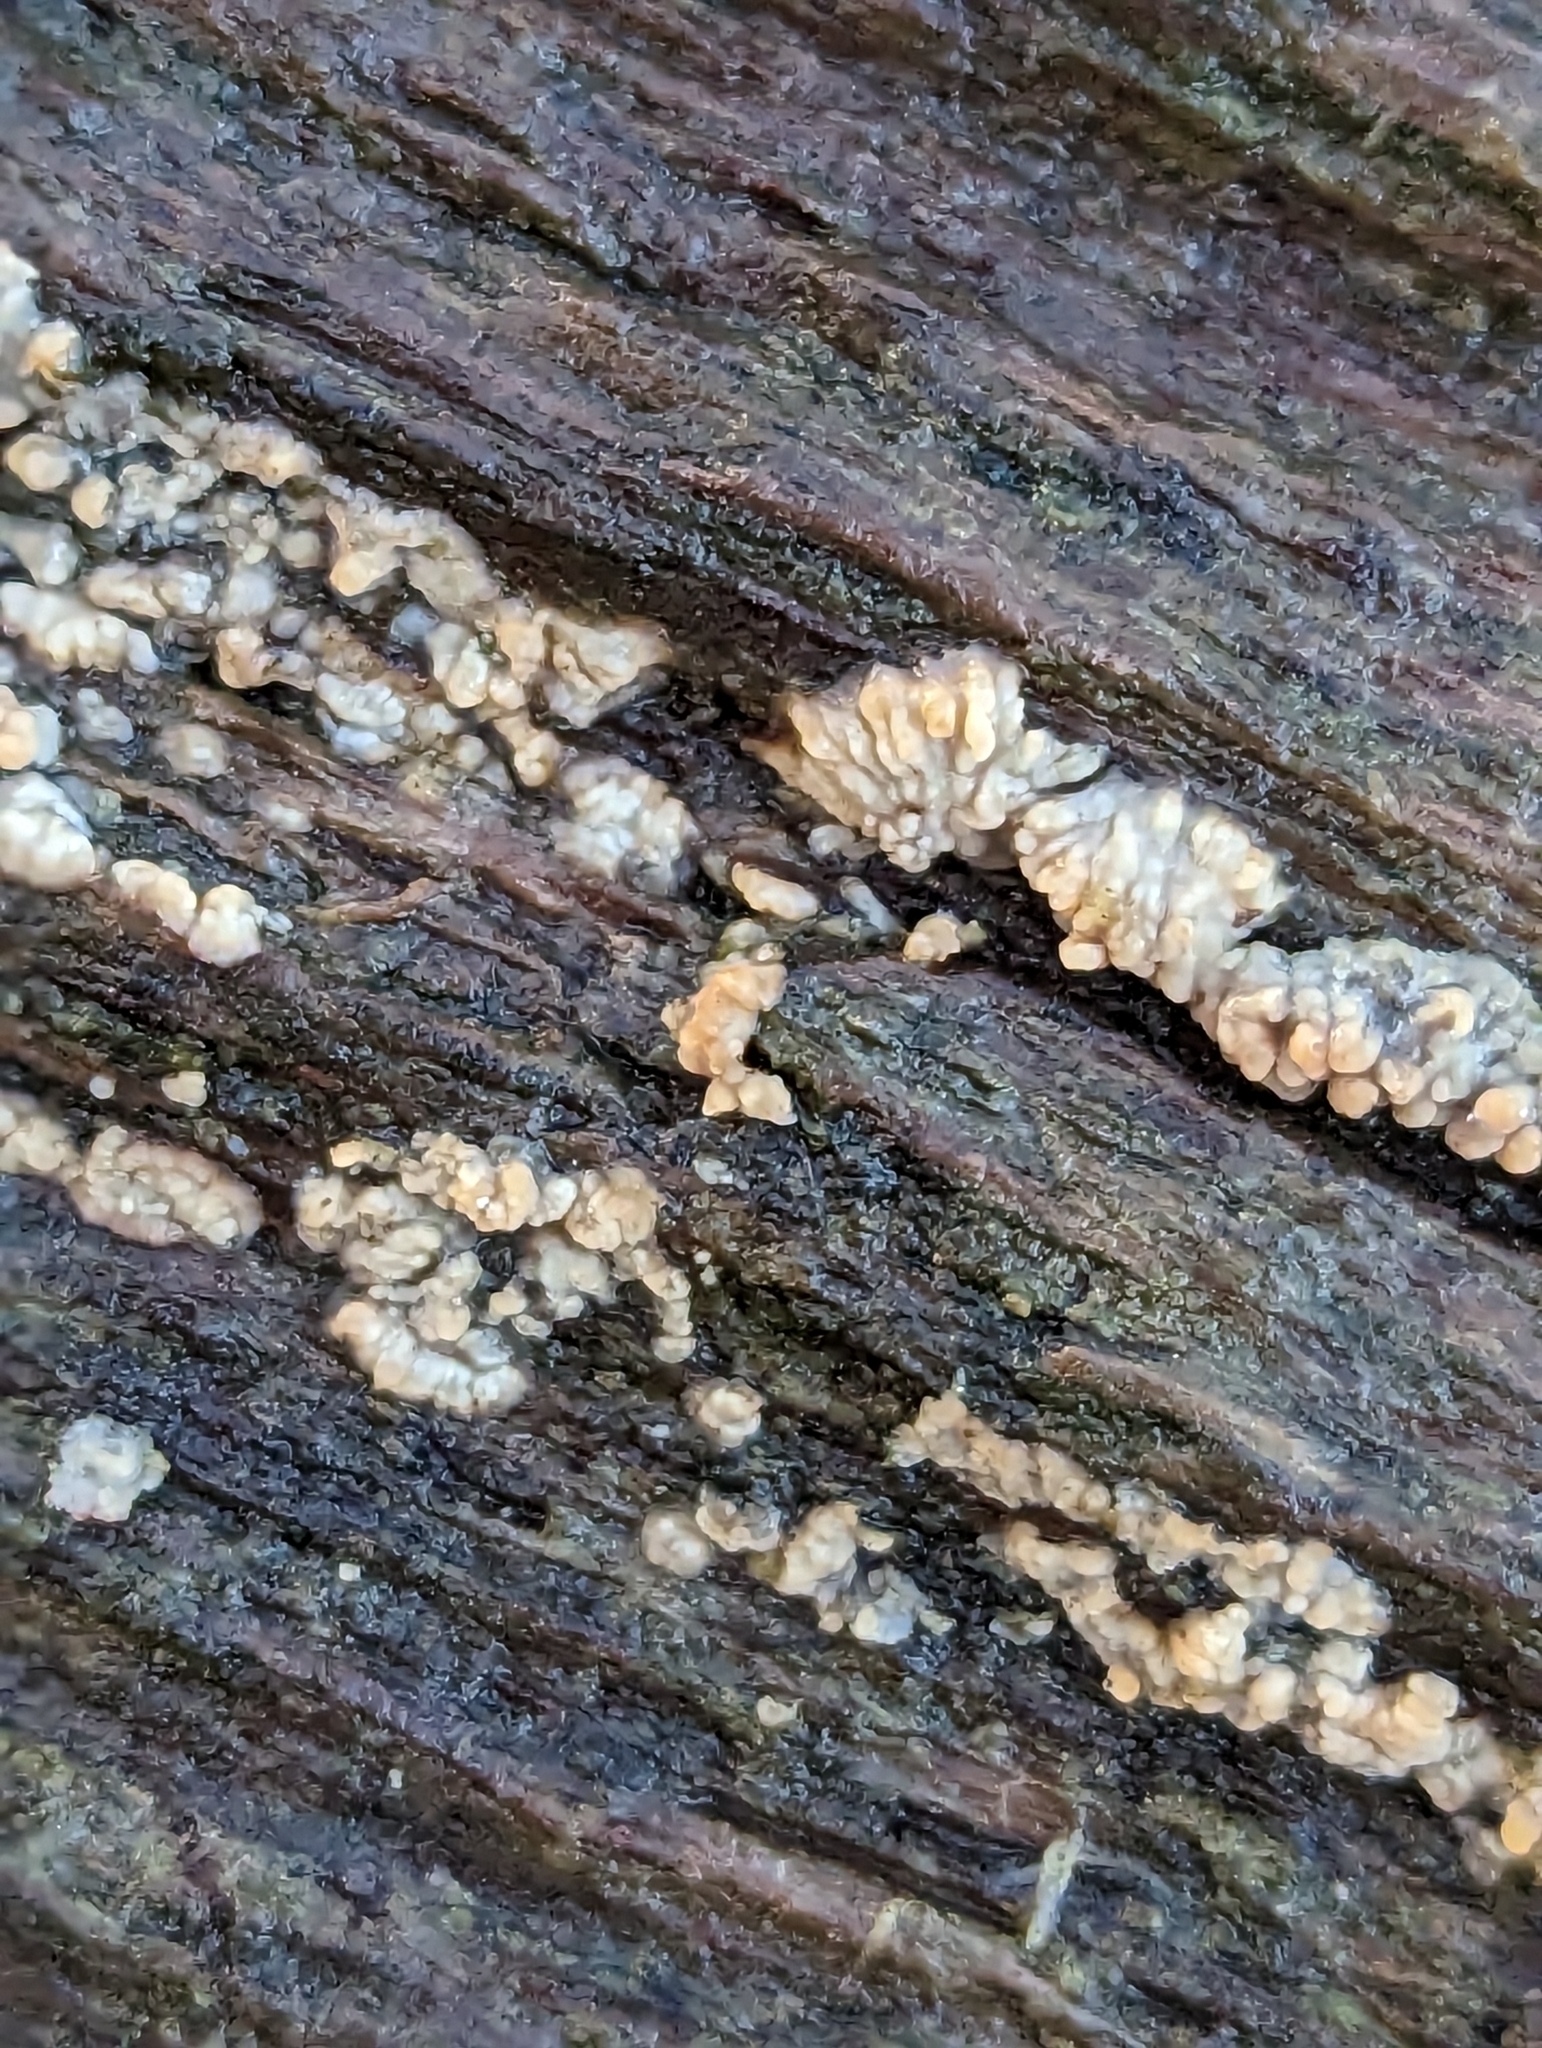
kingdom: Fungi
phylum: Basidiomycota
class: Agaricomycetes
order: Polyporales
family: Meruliaceae
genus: Phlebia
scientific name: Phlebia radiata
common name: Wrinkled crust
